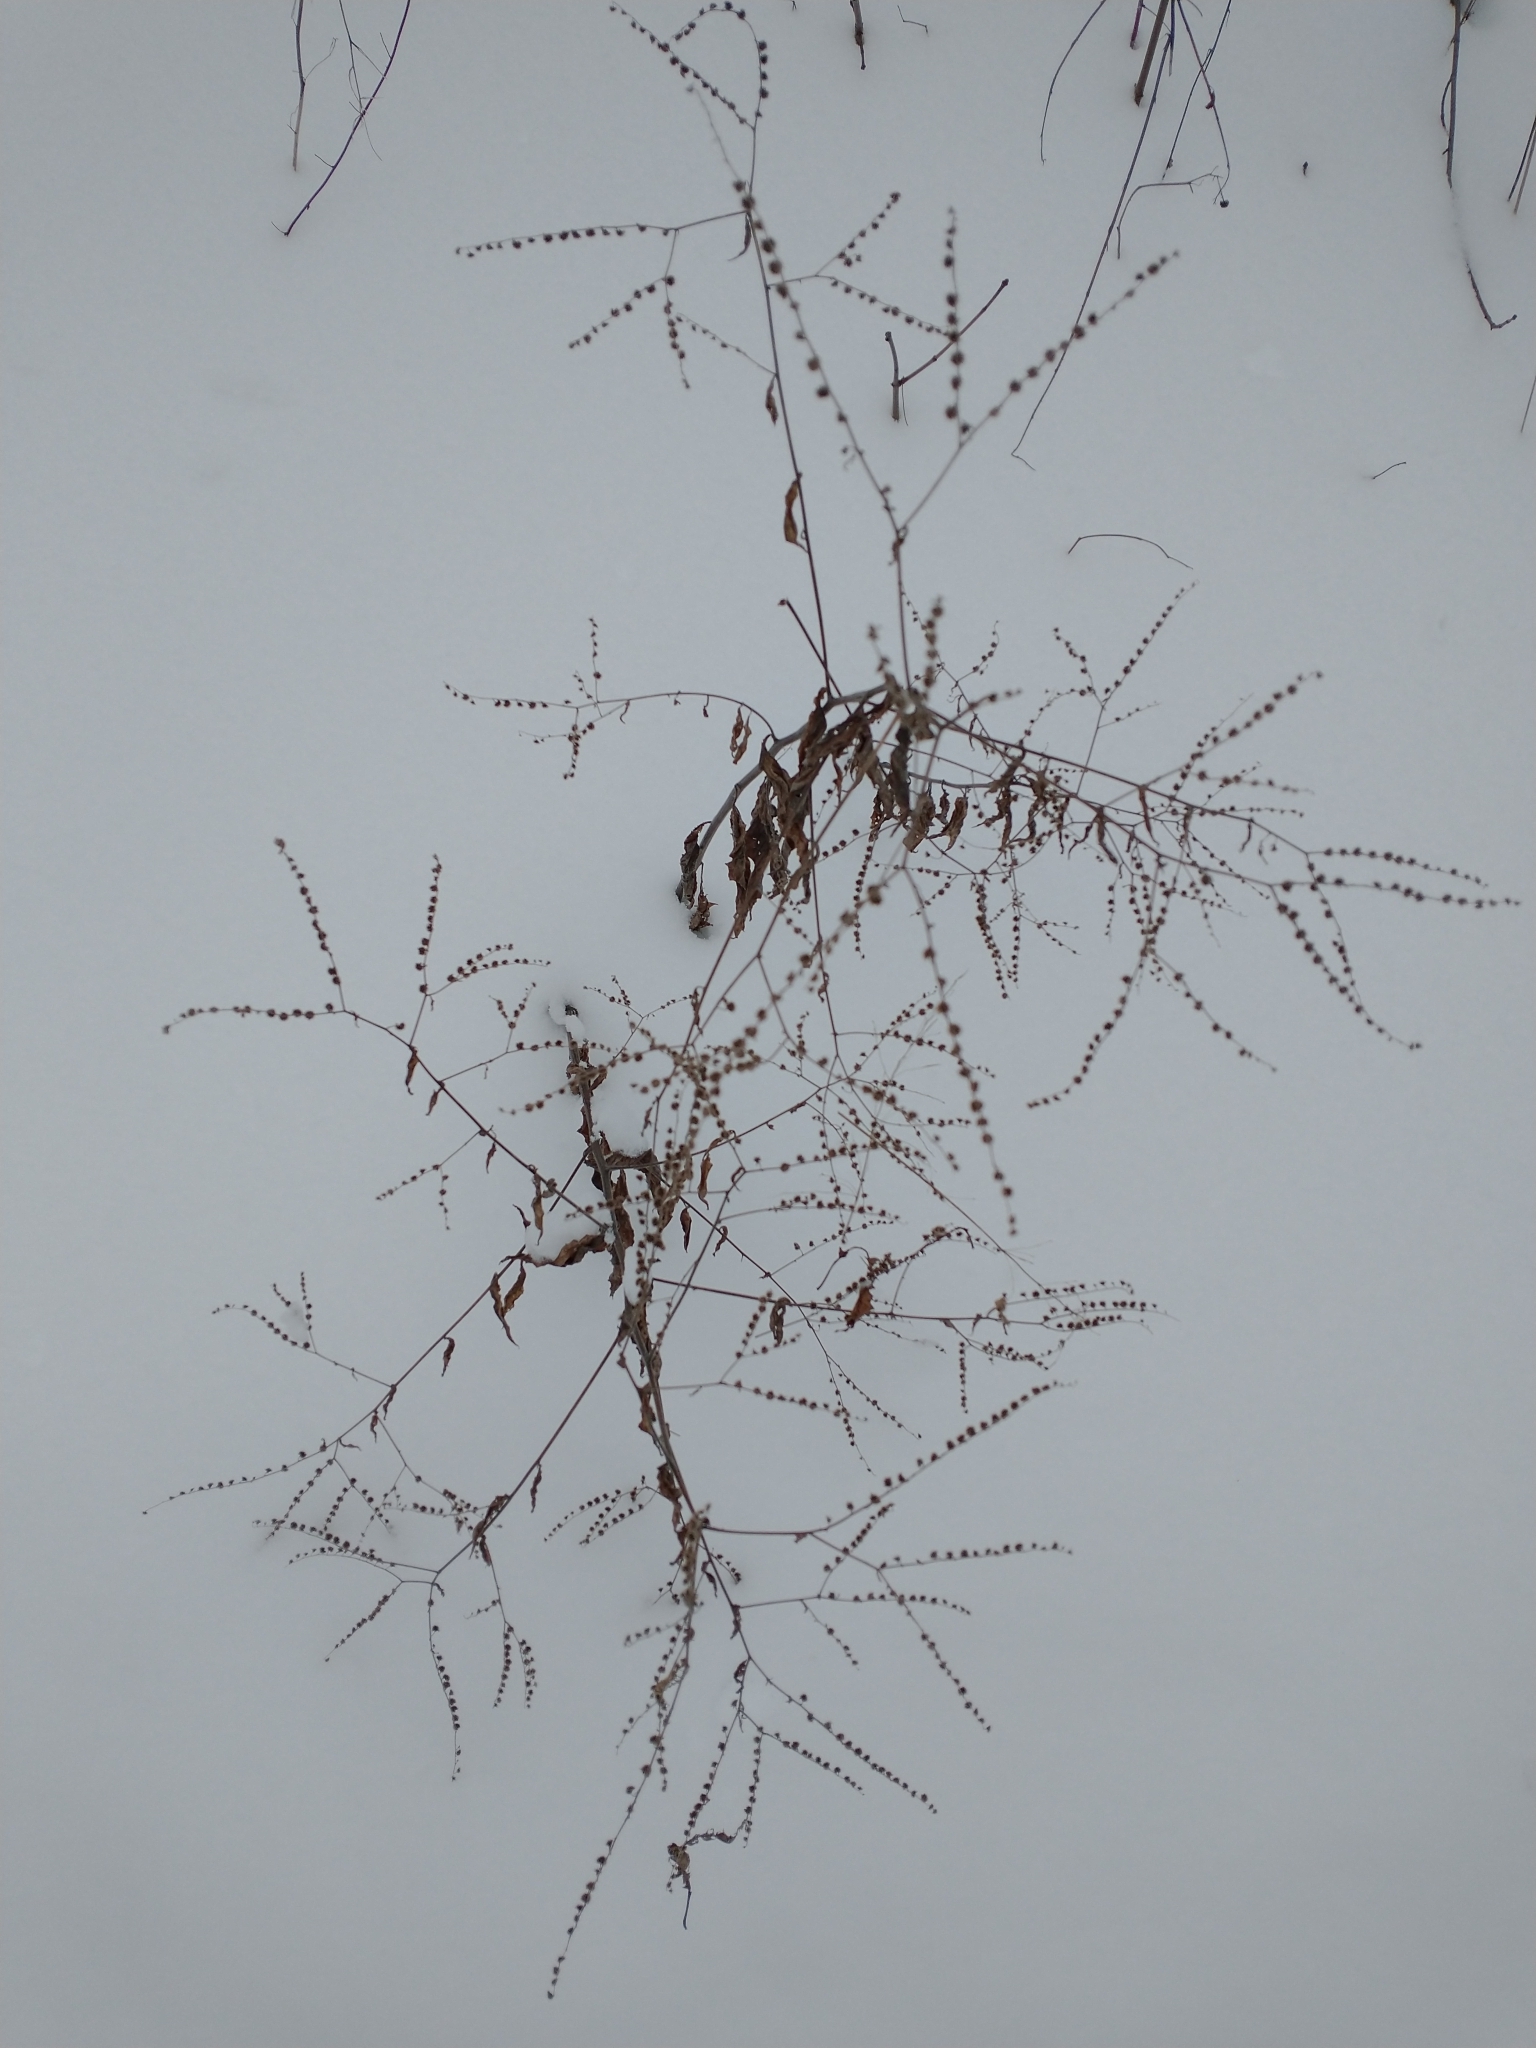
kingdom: Plantae
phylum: Tracheophyta
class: Magnoliopsida
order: Boraginales
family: Boraginaceae
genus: Hackelia
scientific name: Hackelia virginiana
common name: Beggar's-lice
